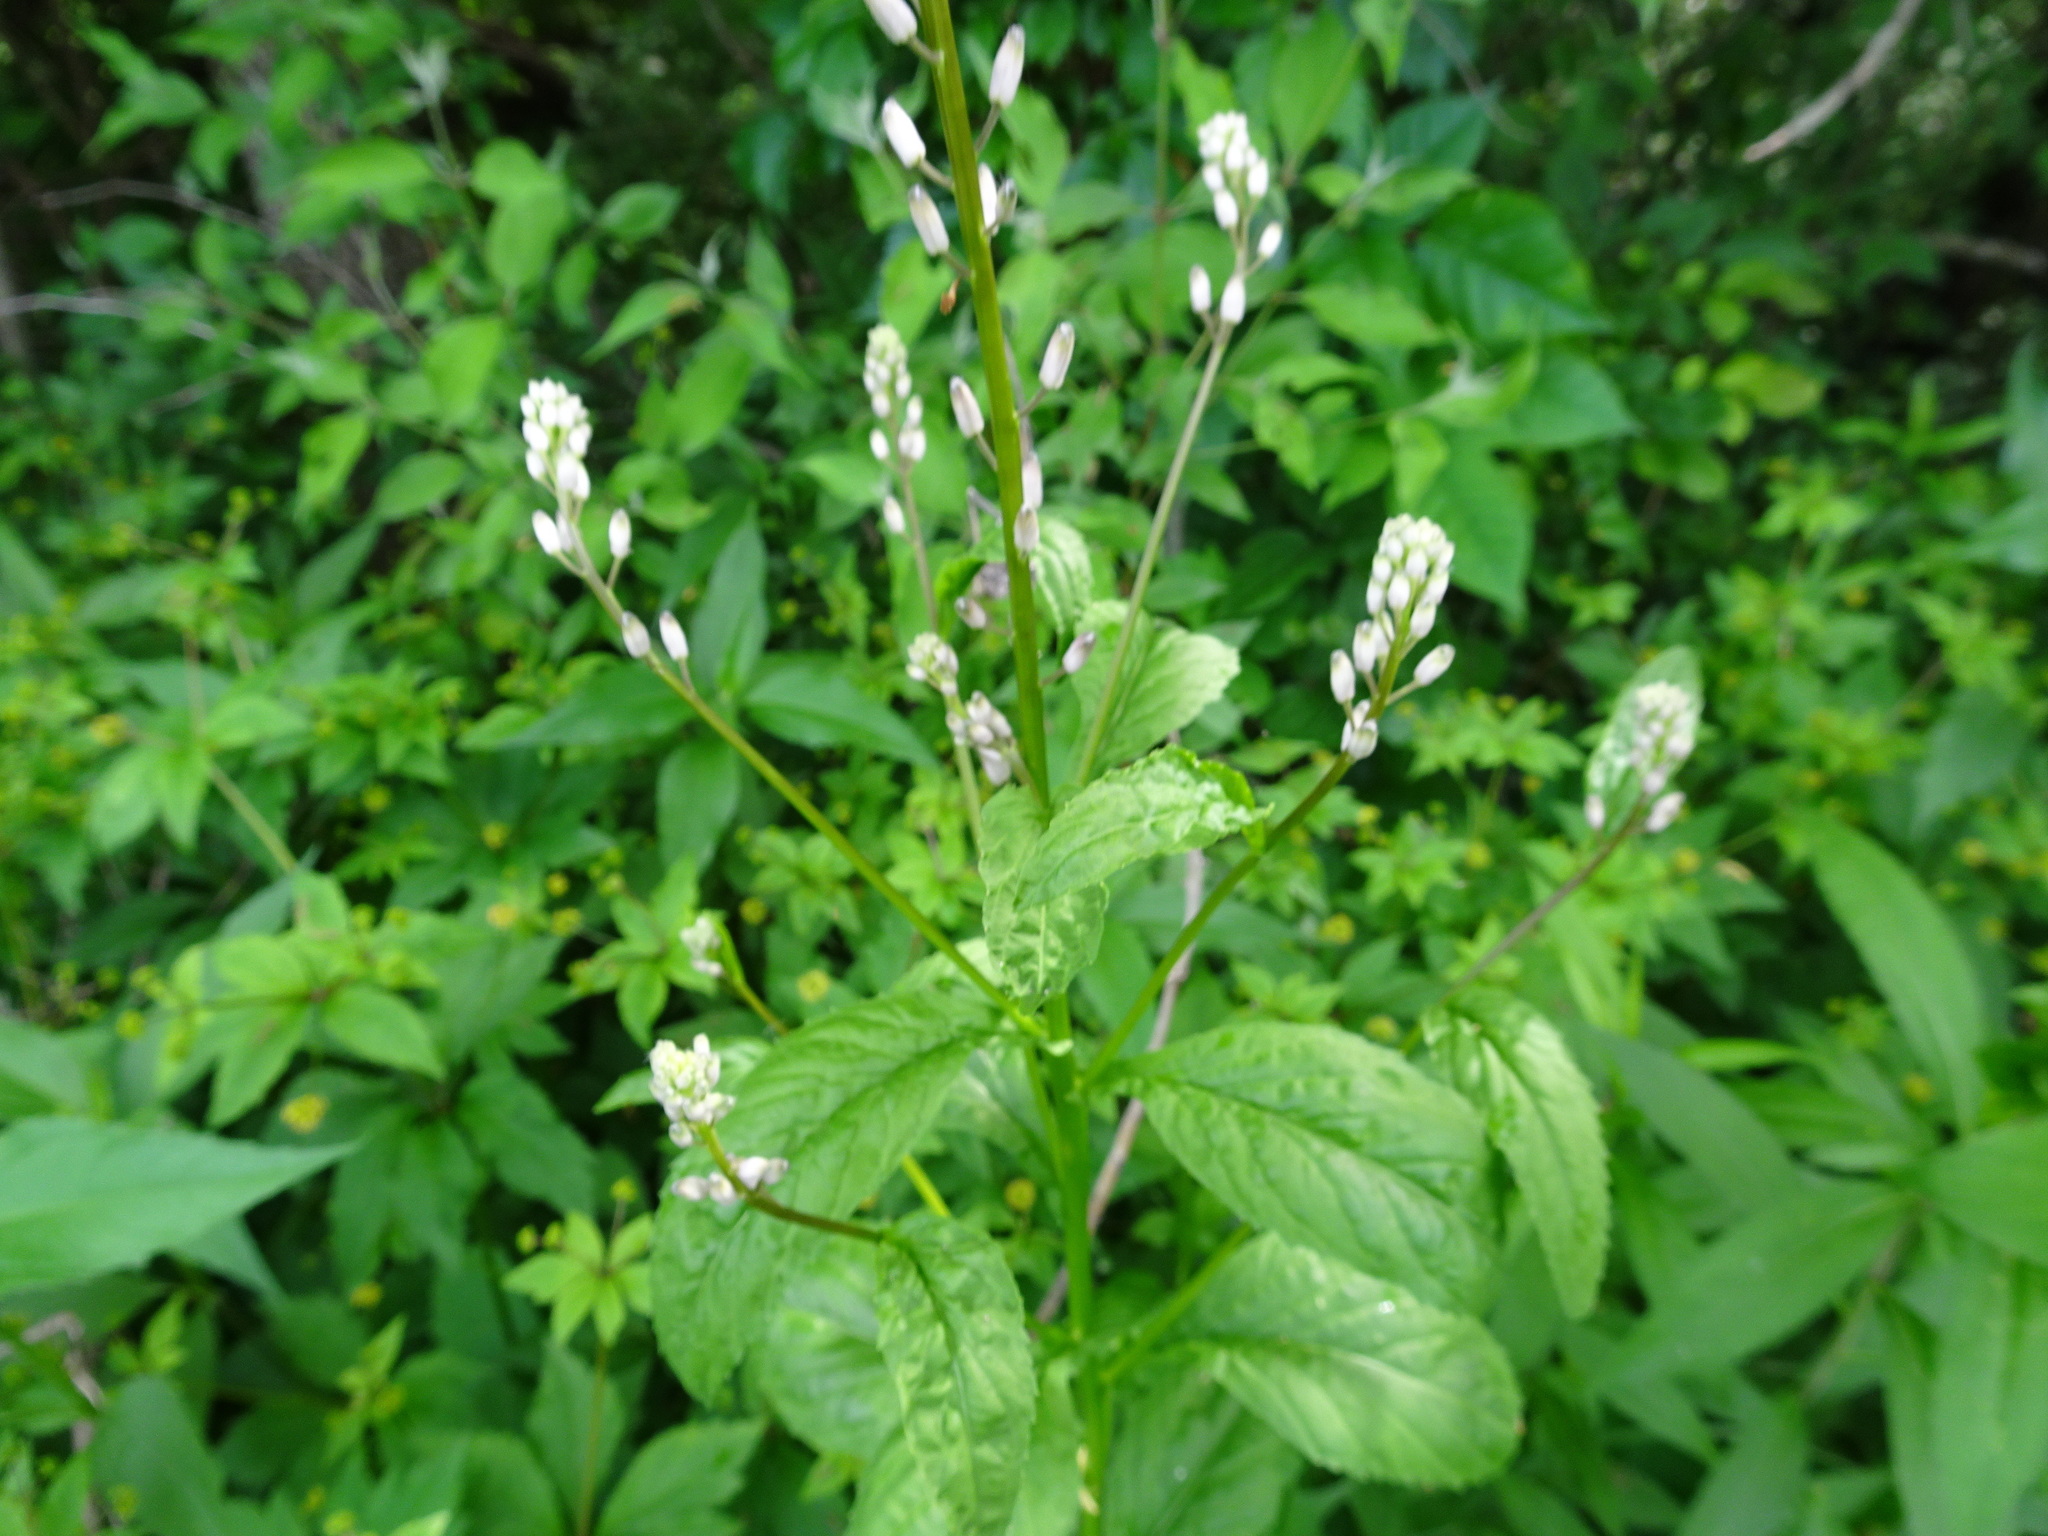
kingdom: Plantae
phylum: Tracheophyta
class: Magnoliopsida
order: Brassicales
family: Brassicaceae
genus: Iodanthus
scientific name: Iodanthus pinnatifidus
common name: Violet rocket
